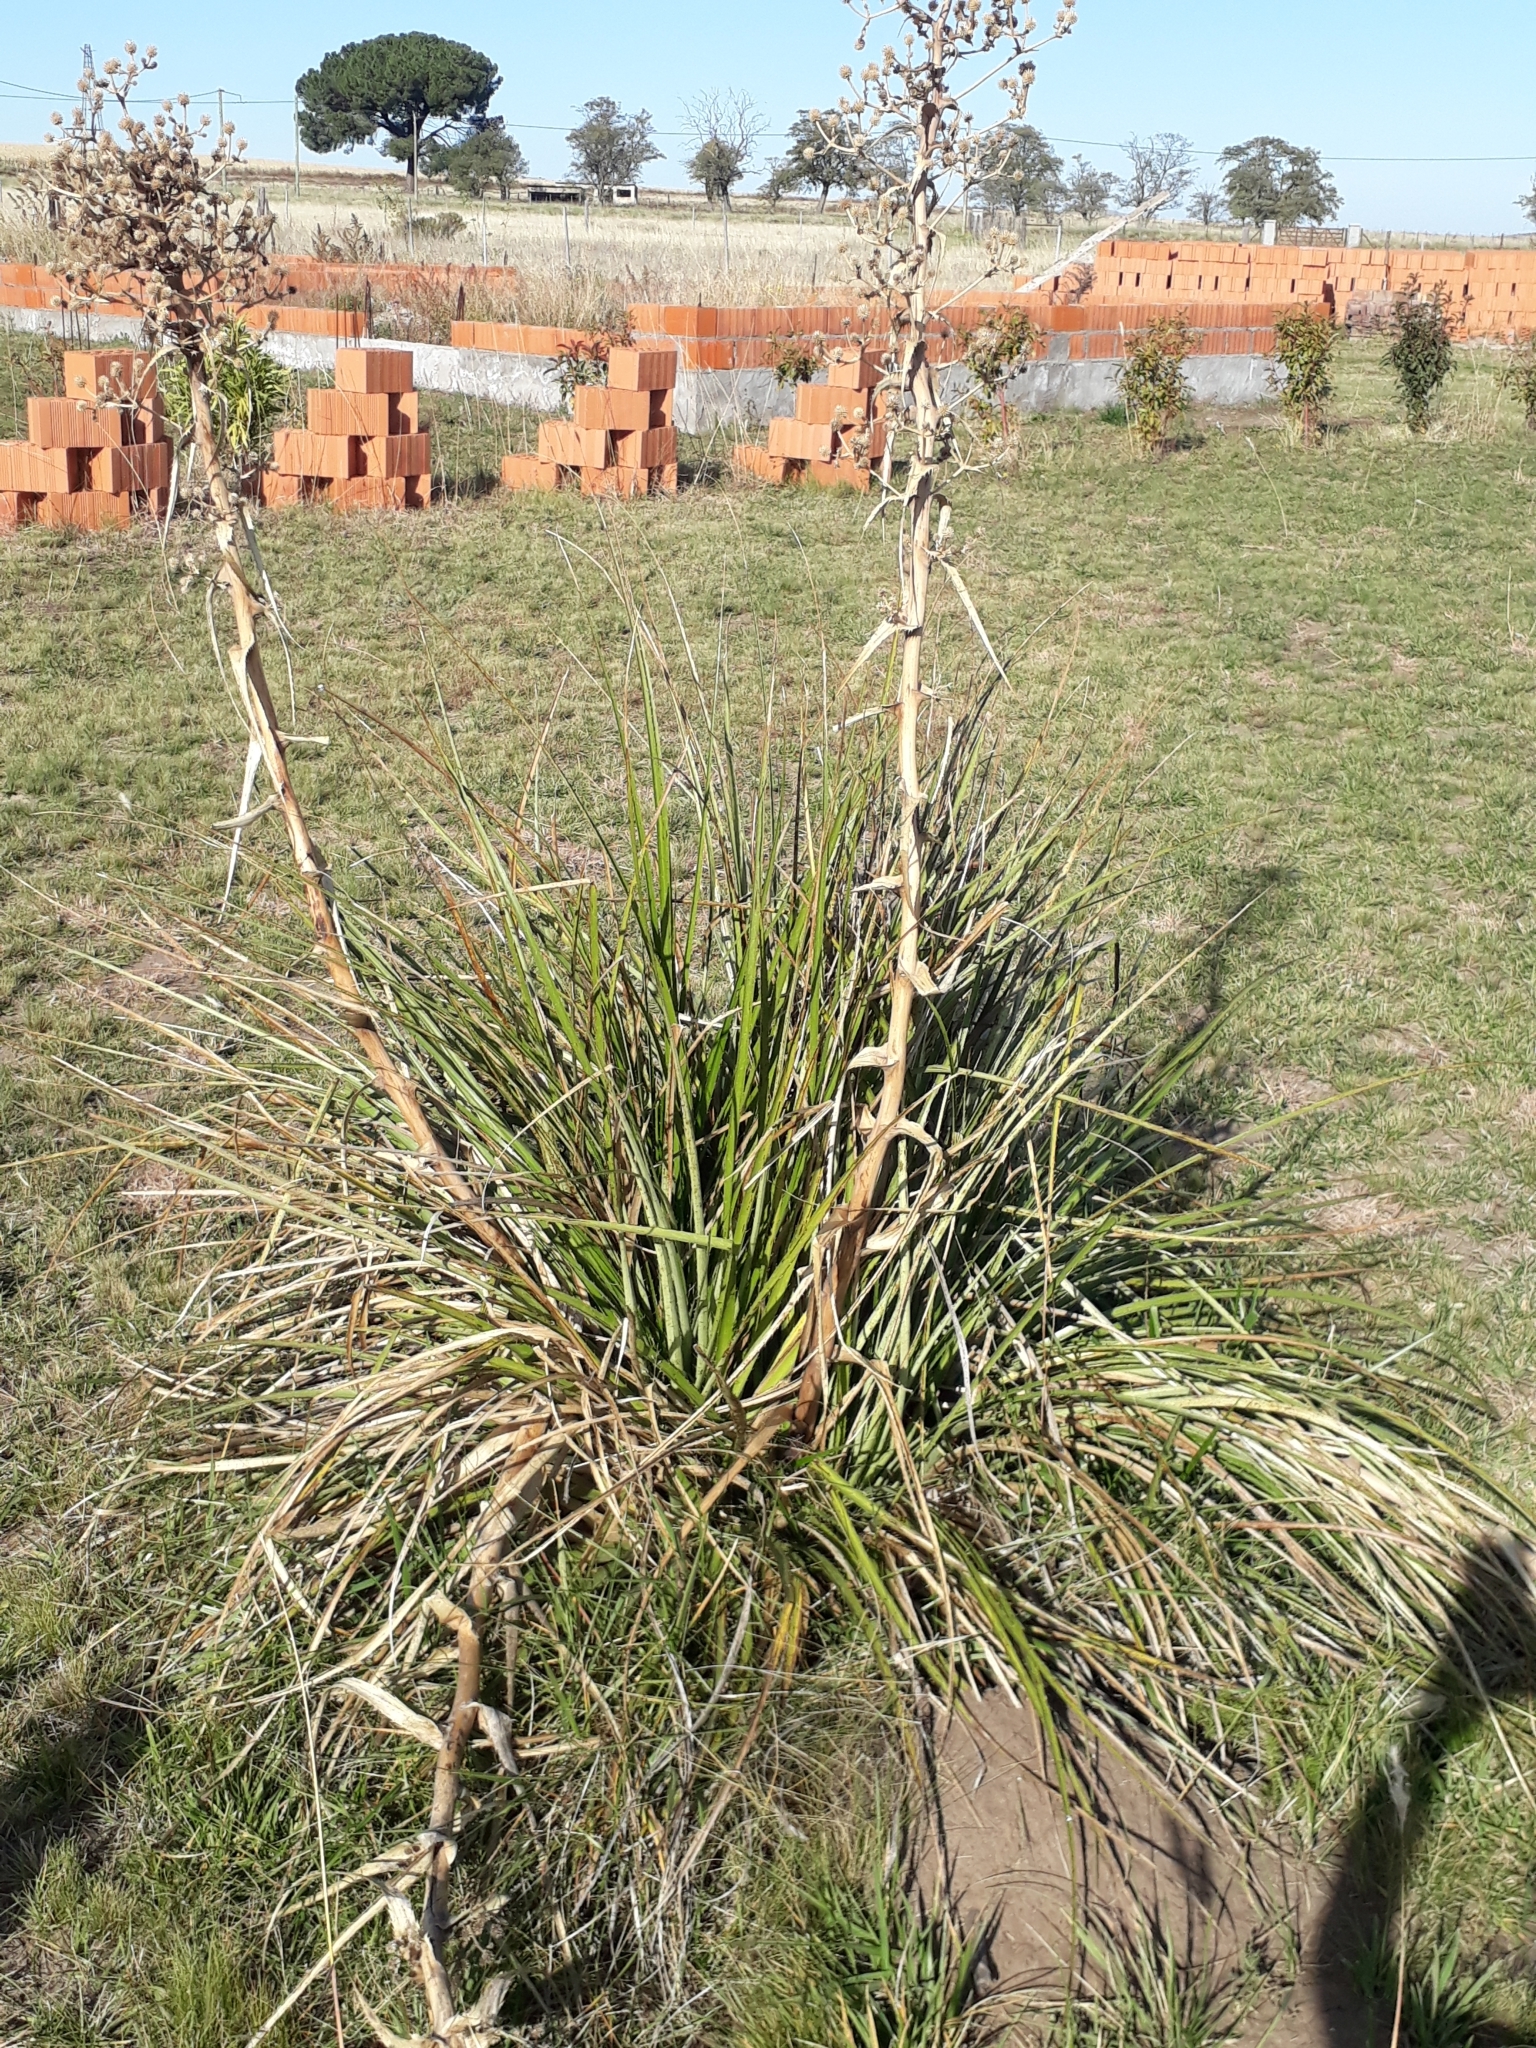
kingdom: Plantae
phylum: Tracheophyta
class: Magnoliopsida
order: Apiales
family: Apiaceae
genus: Eryngium
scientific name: Eryngium humboldtii
